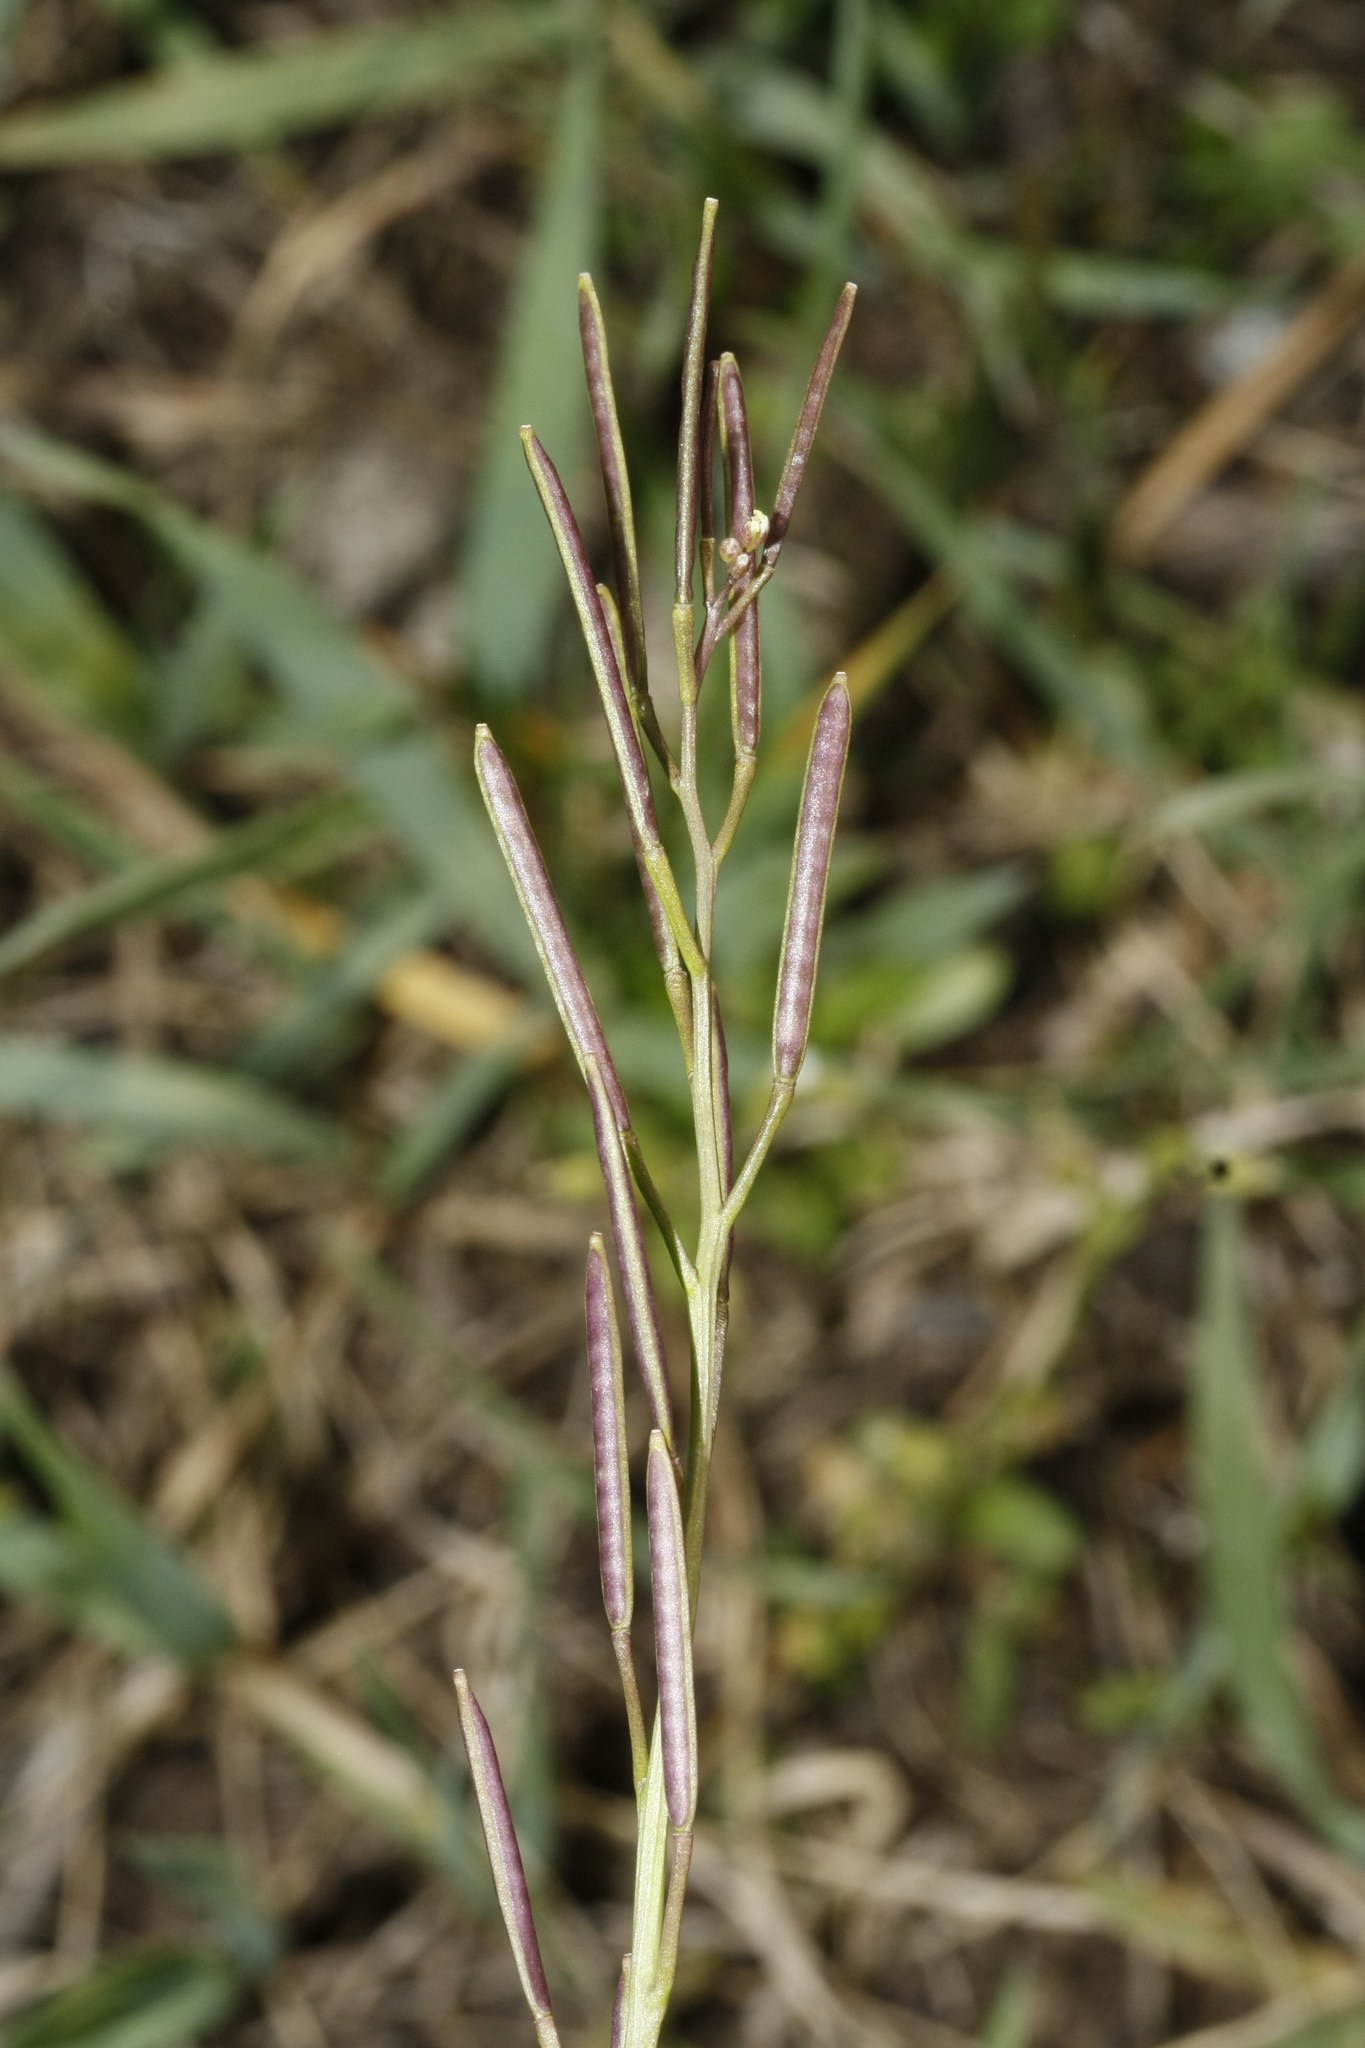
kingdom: Plantae
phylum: Tracheophyta
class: Magnoliopsida
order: Brassicales
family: Brassicaceae
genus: Cardamine
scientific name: Cardamine hirsuta
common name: Hairy bittercress
